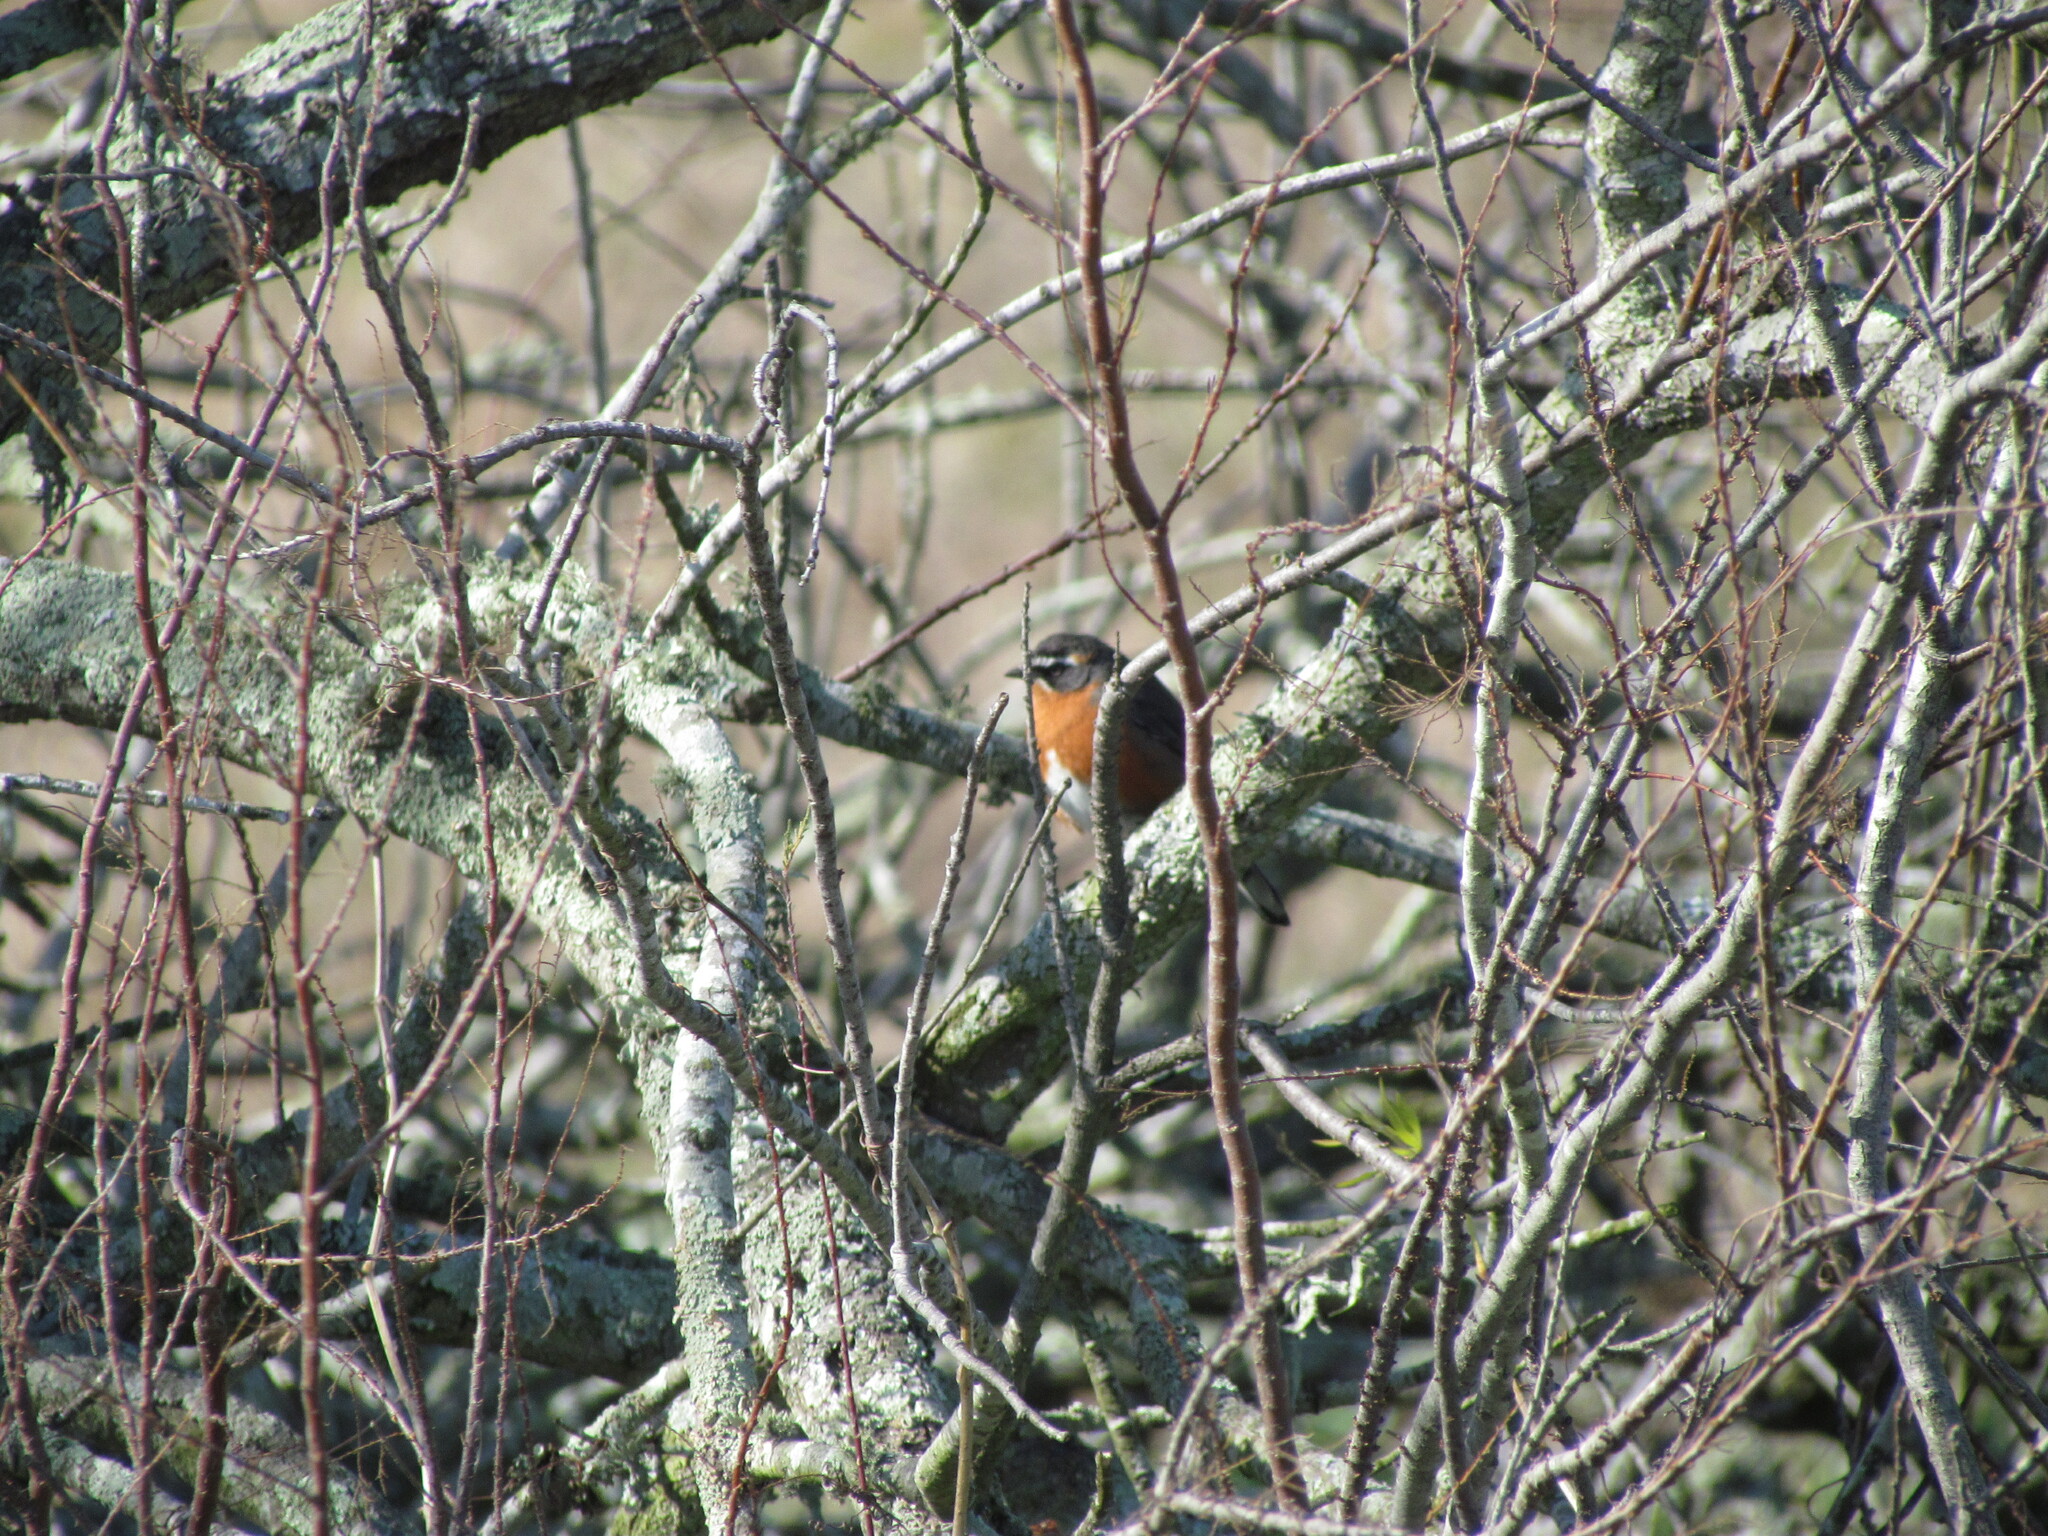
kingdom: Animalia
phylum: Chordata
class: Aves
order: Passeriformes
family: Thraupidae
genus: Poospiza
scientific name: Poospiza nigrorufa
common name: Black-and-rufous warbling finch
